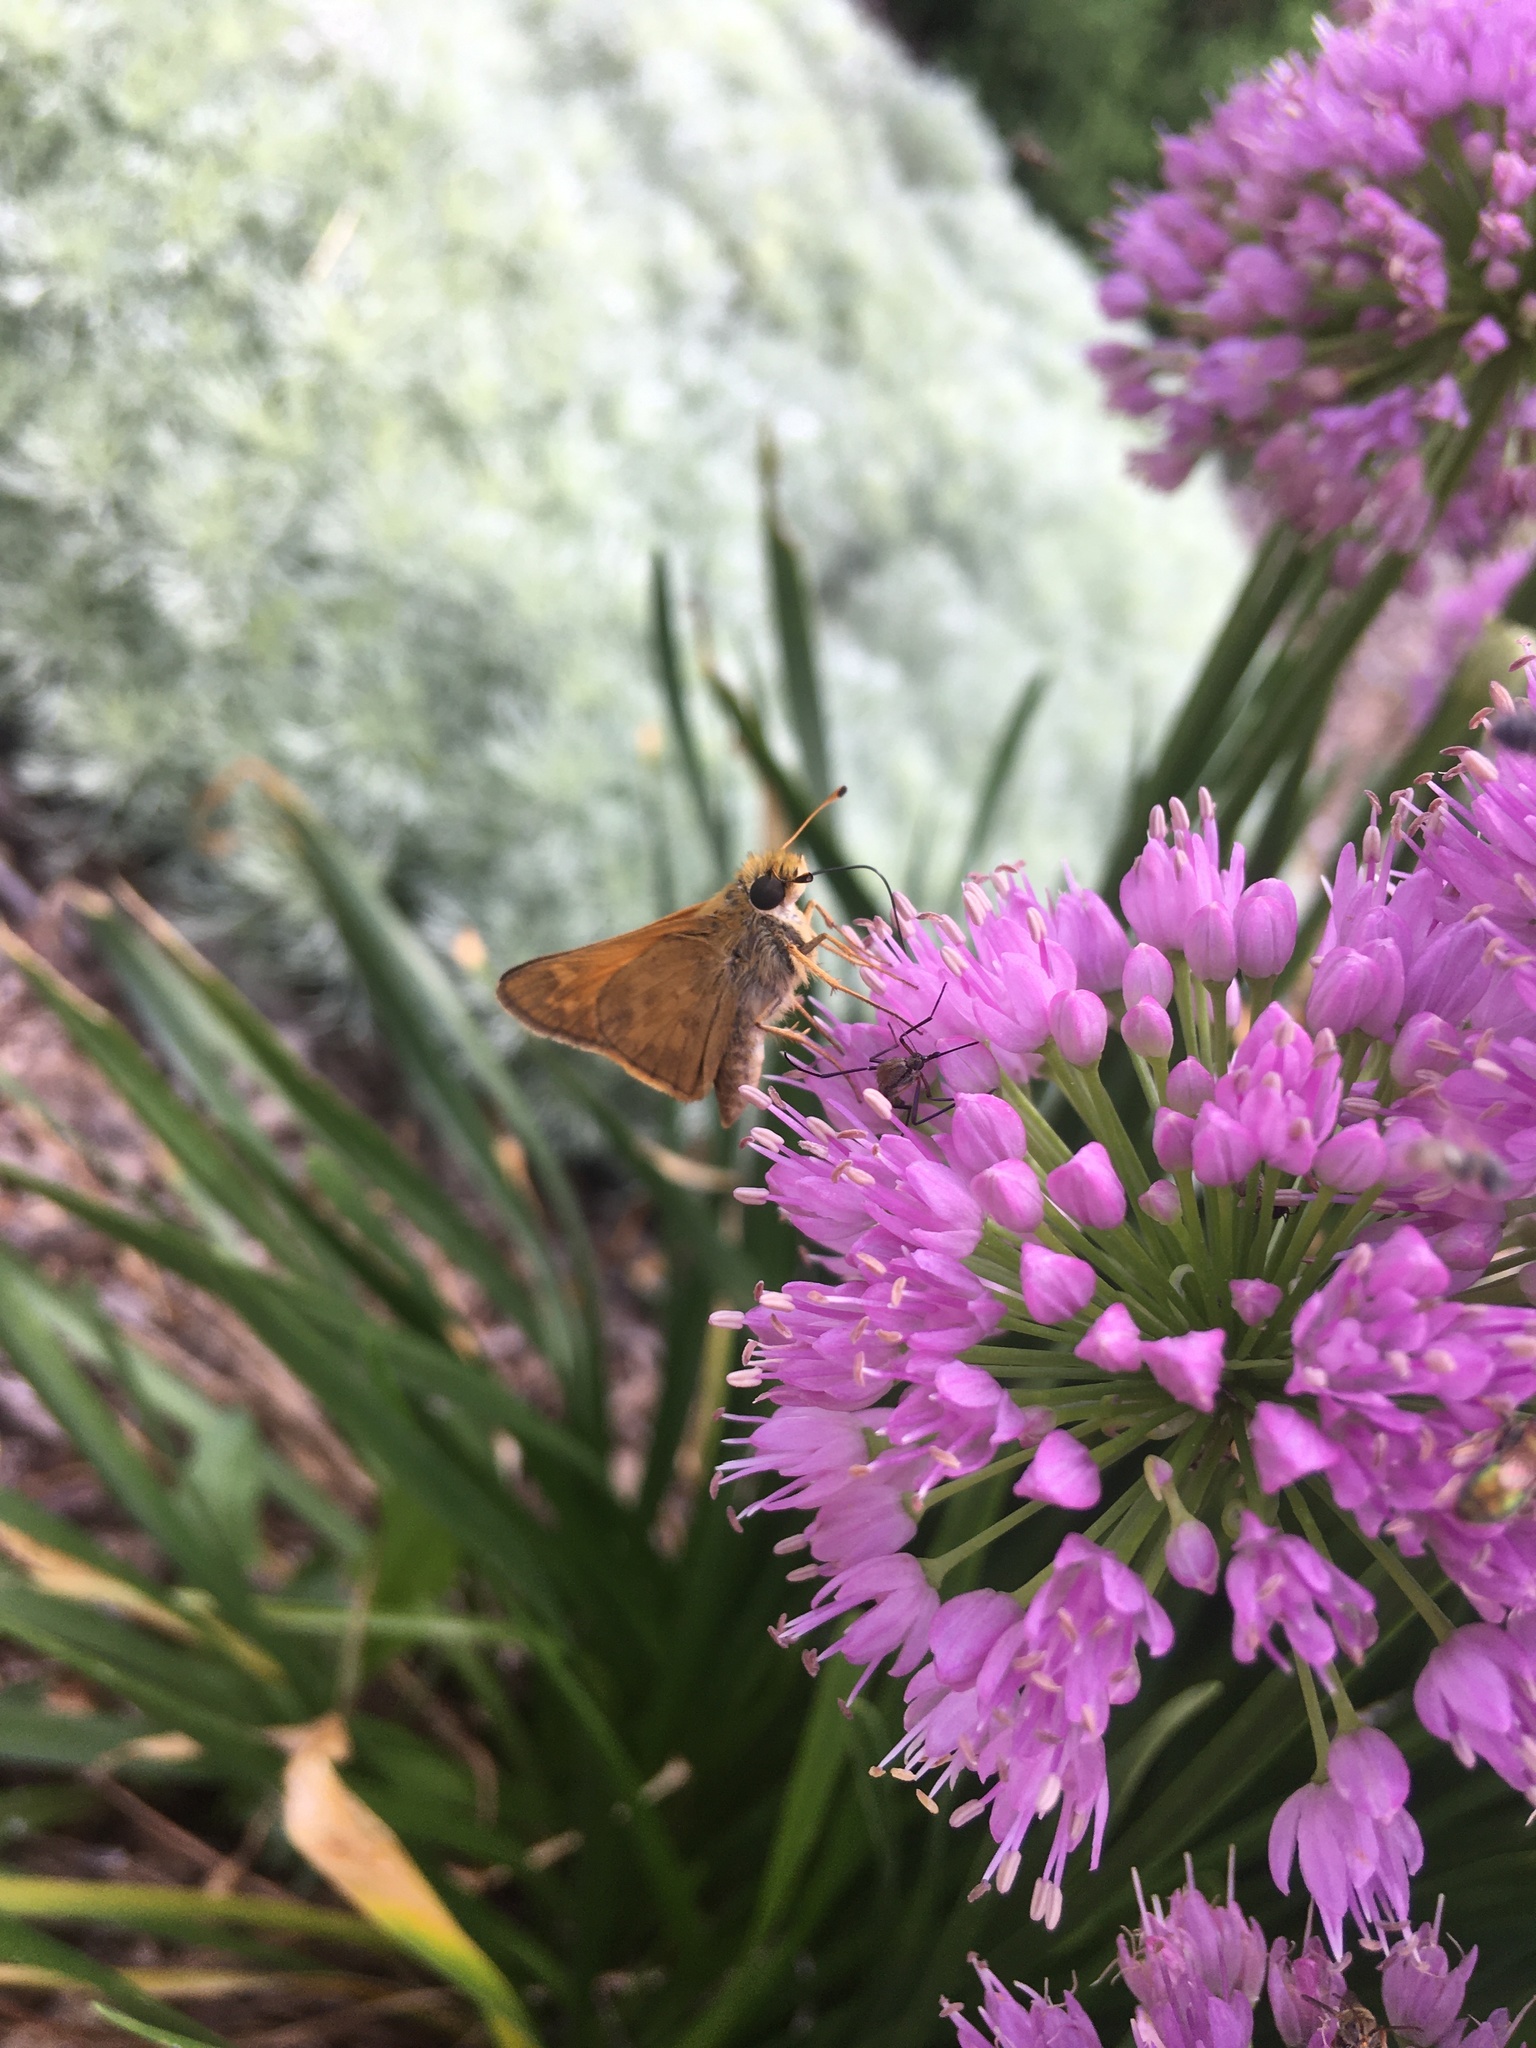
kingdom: Animalia
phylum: Arthropoda
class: Insecta
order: Lepidoptera
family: Hesperiidae
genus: Atalopedes
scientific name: Atalopedes
